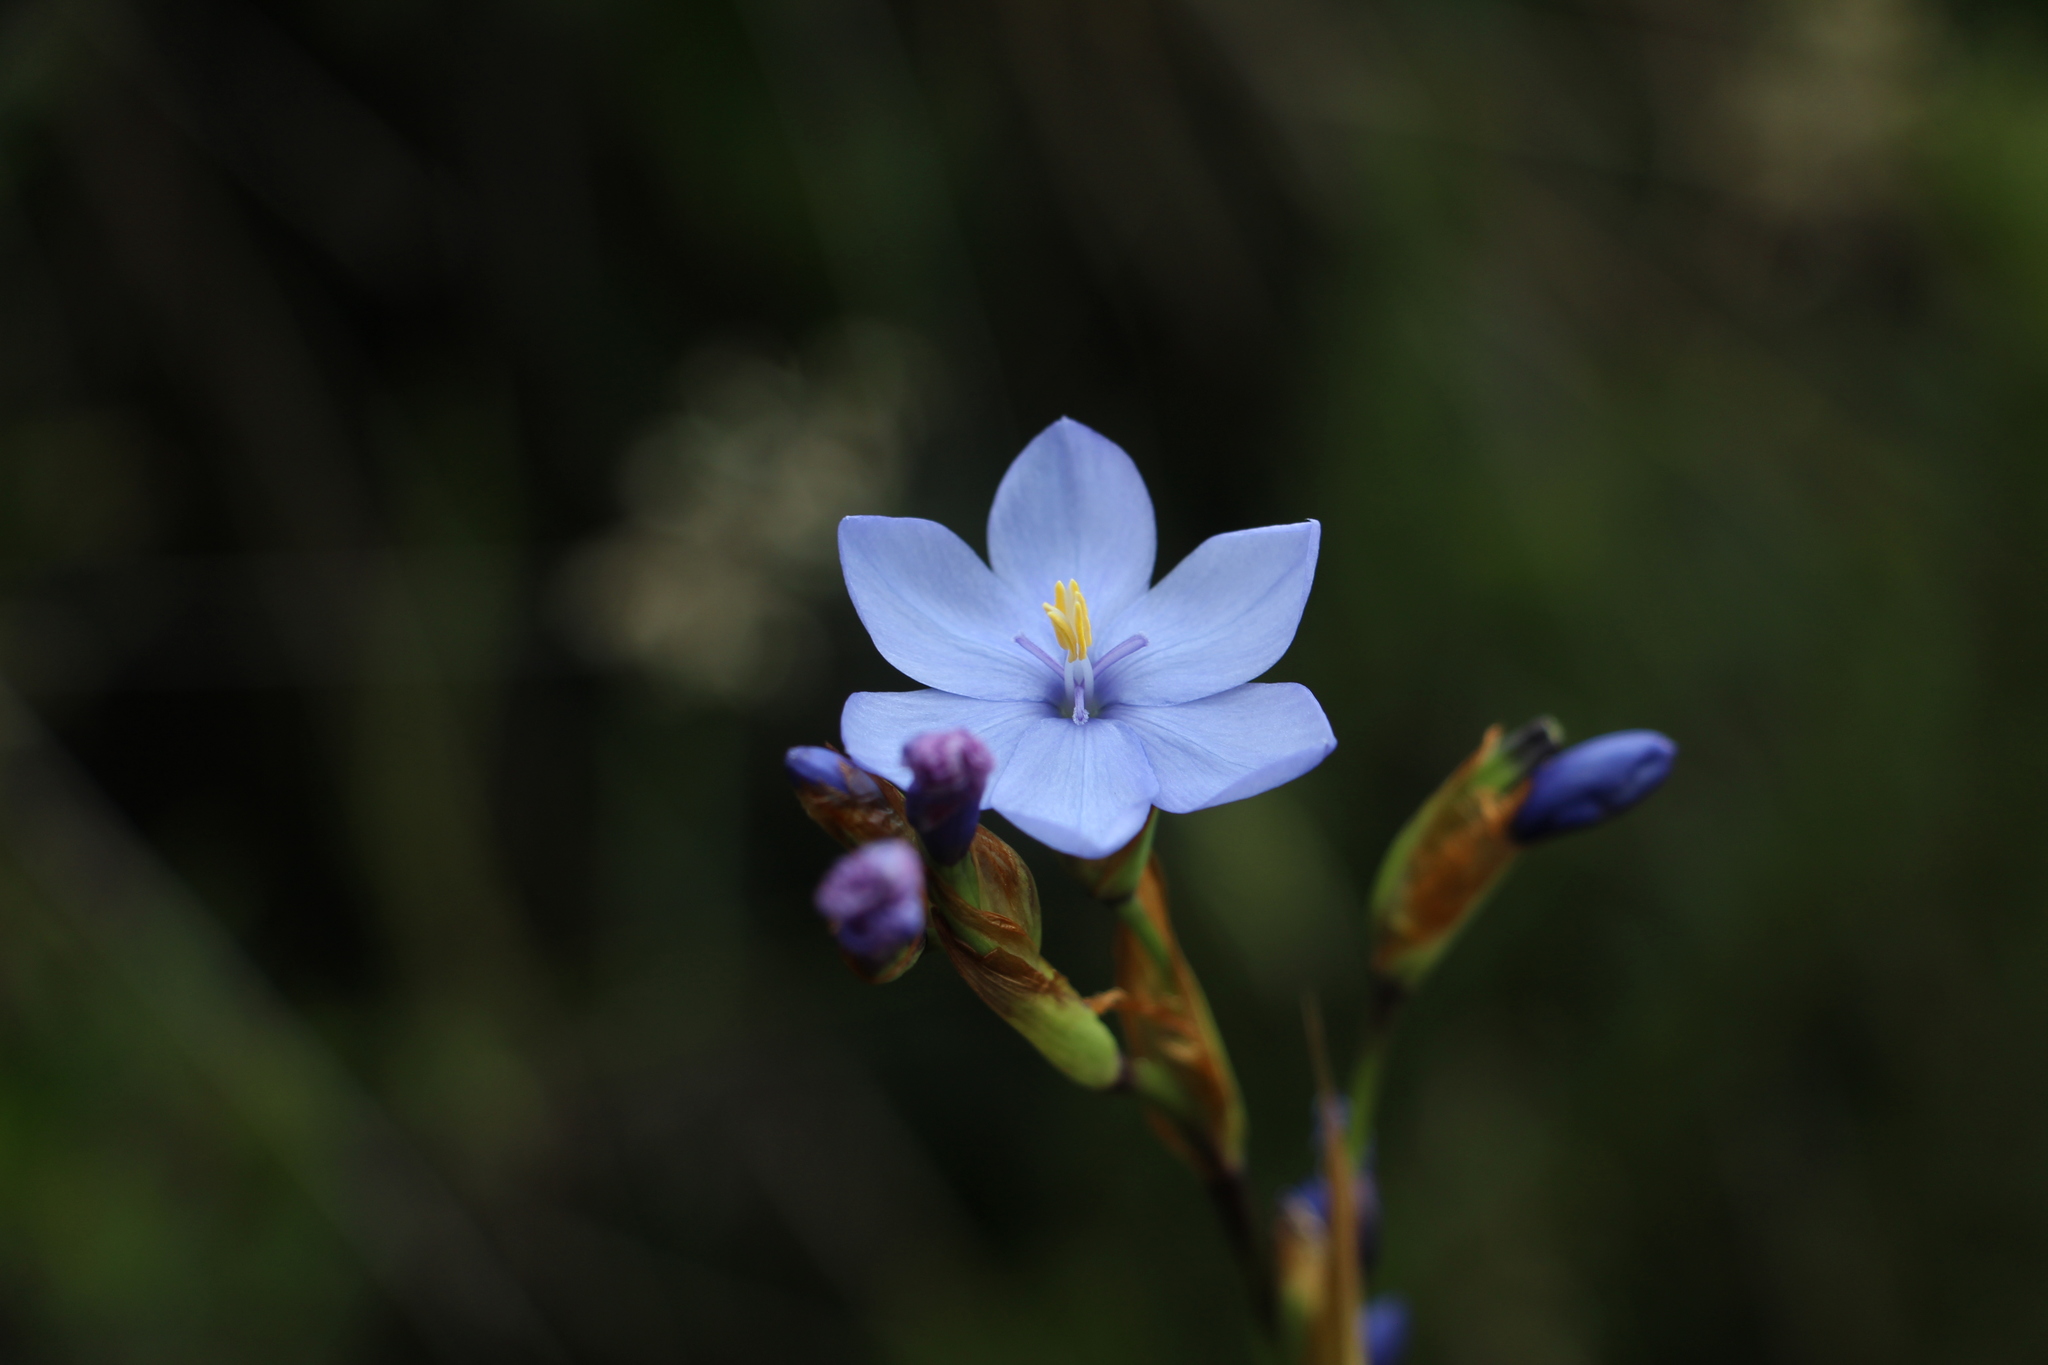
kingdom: Plantae
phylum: Tracheophyta
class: Liliopsida
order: Asparagales
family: Iridaceae
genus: Orthrosanthus
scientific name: Orthrosanthus chimboracensis
